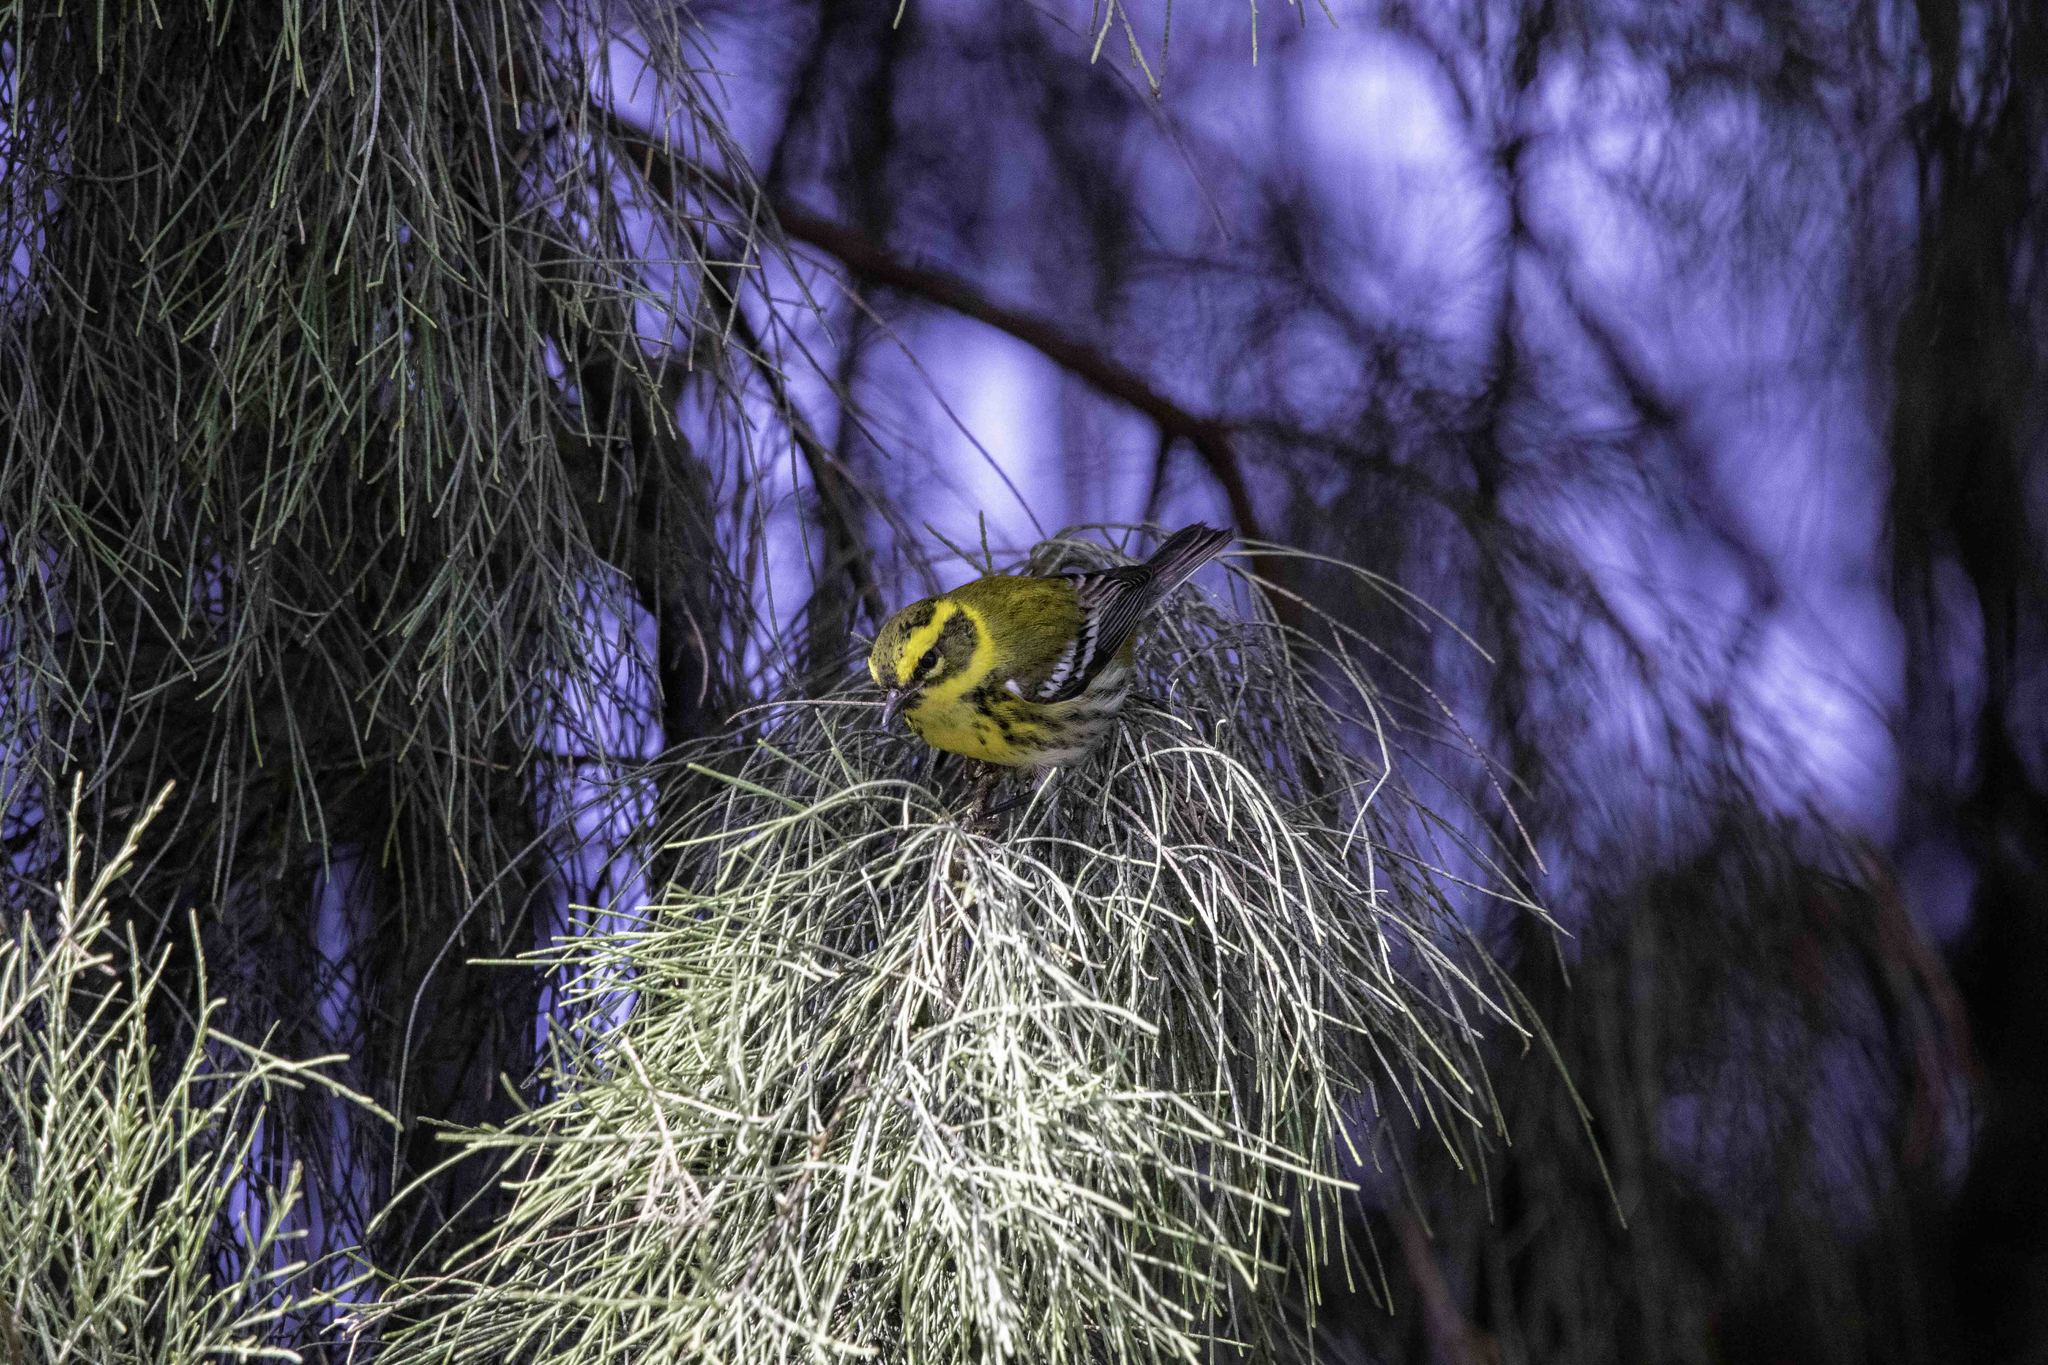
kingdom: Animalia
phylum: Chordata
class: Aves
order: Passeriformes
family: Parulidae
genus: Setophaga
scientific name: Setophaga townsendi
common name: Townsend's warbler
